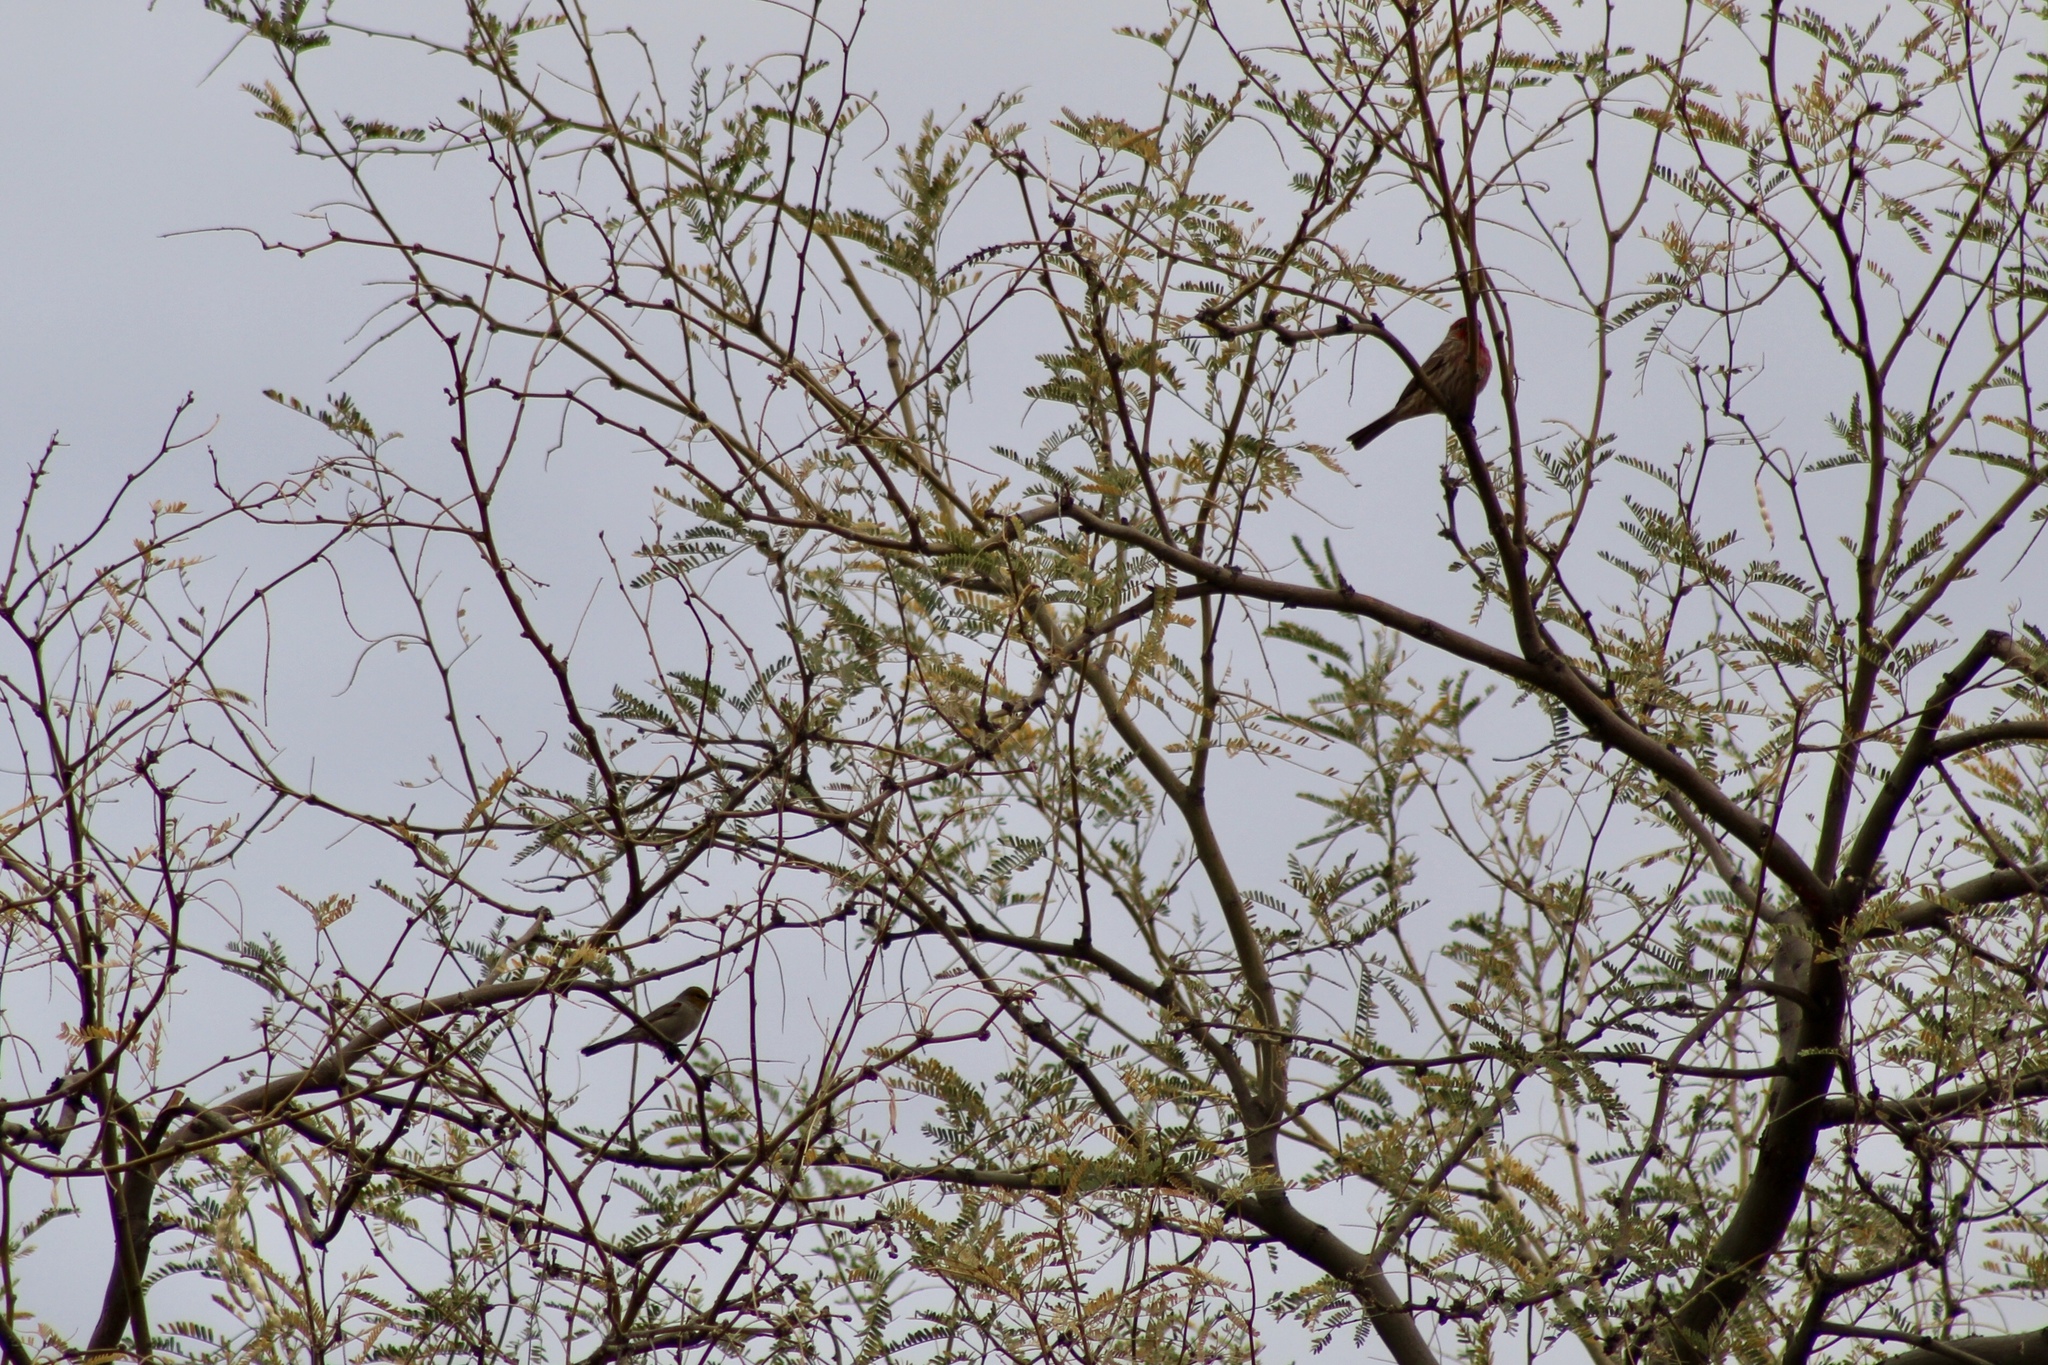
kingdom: Animalia
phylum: Chordata
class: Aves
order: Passeriformes
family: Fringillidae
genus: Haemorhous
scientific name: Haemorhous mexicanus
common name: House finch
